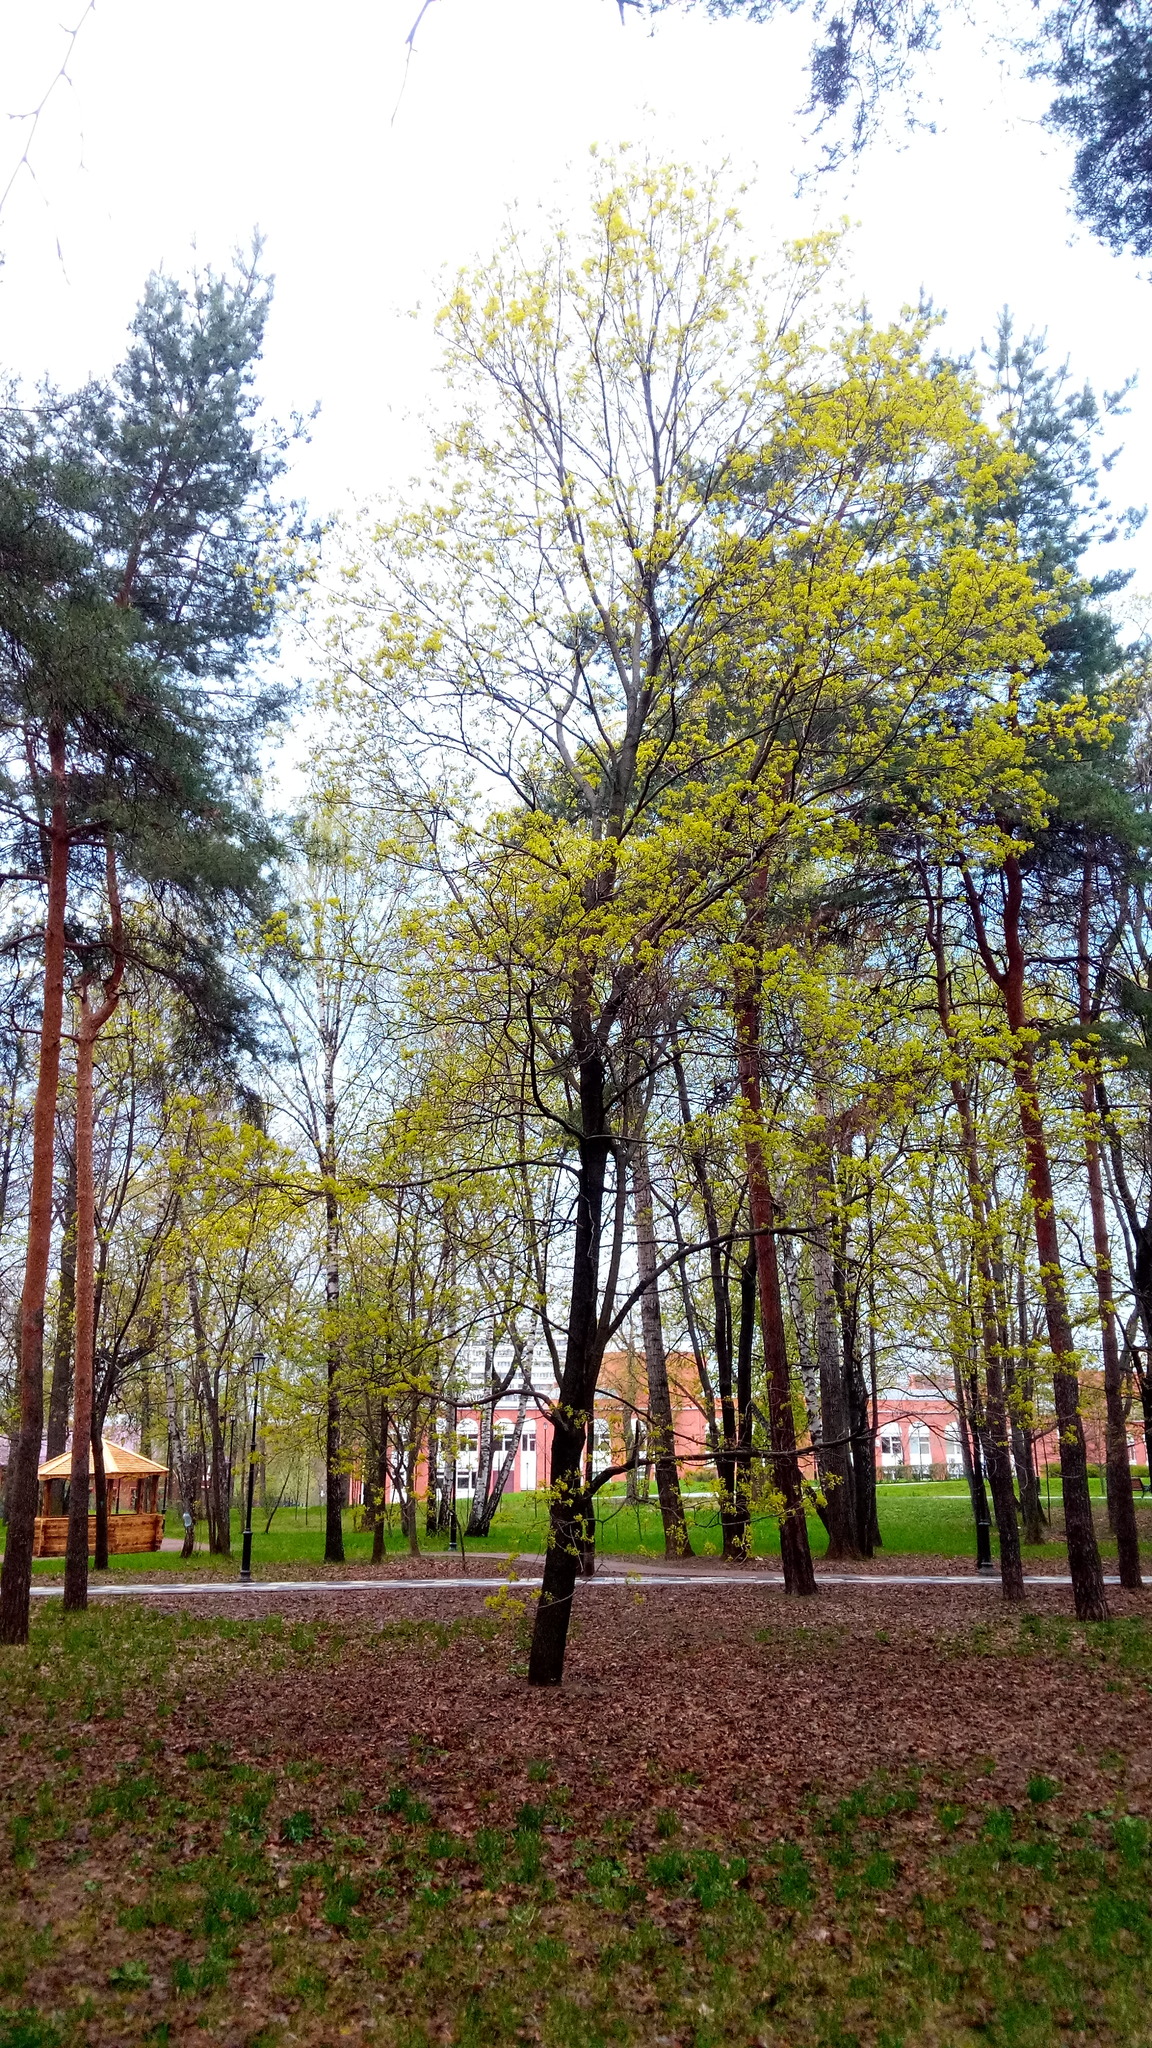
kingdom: Plantae
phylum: Tracheophyta
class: Magnoliopsida
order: Sapindales
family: Sapindaceae
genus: Acer
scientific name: Acer platanoides
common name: Norway maple
